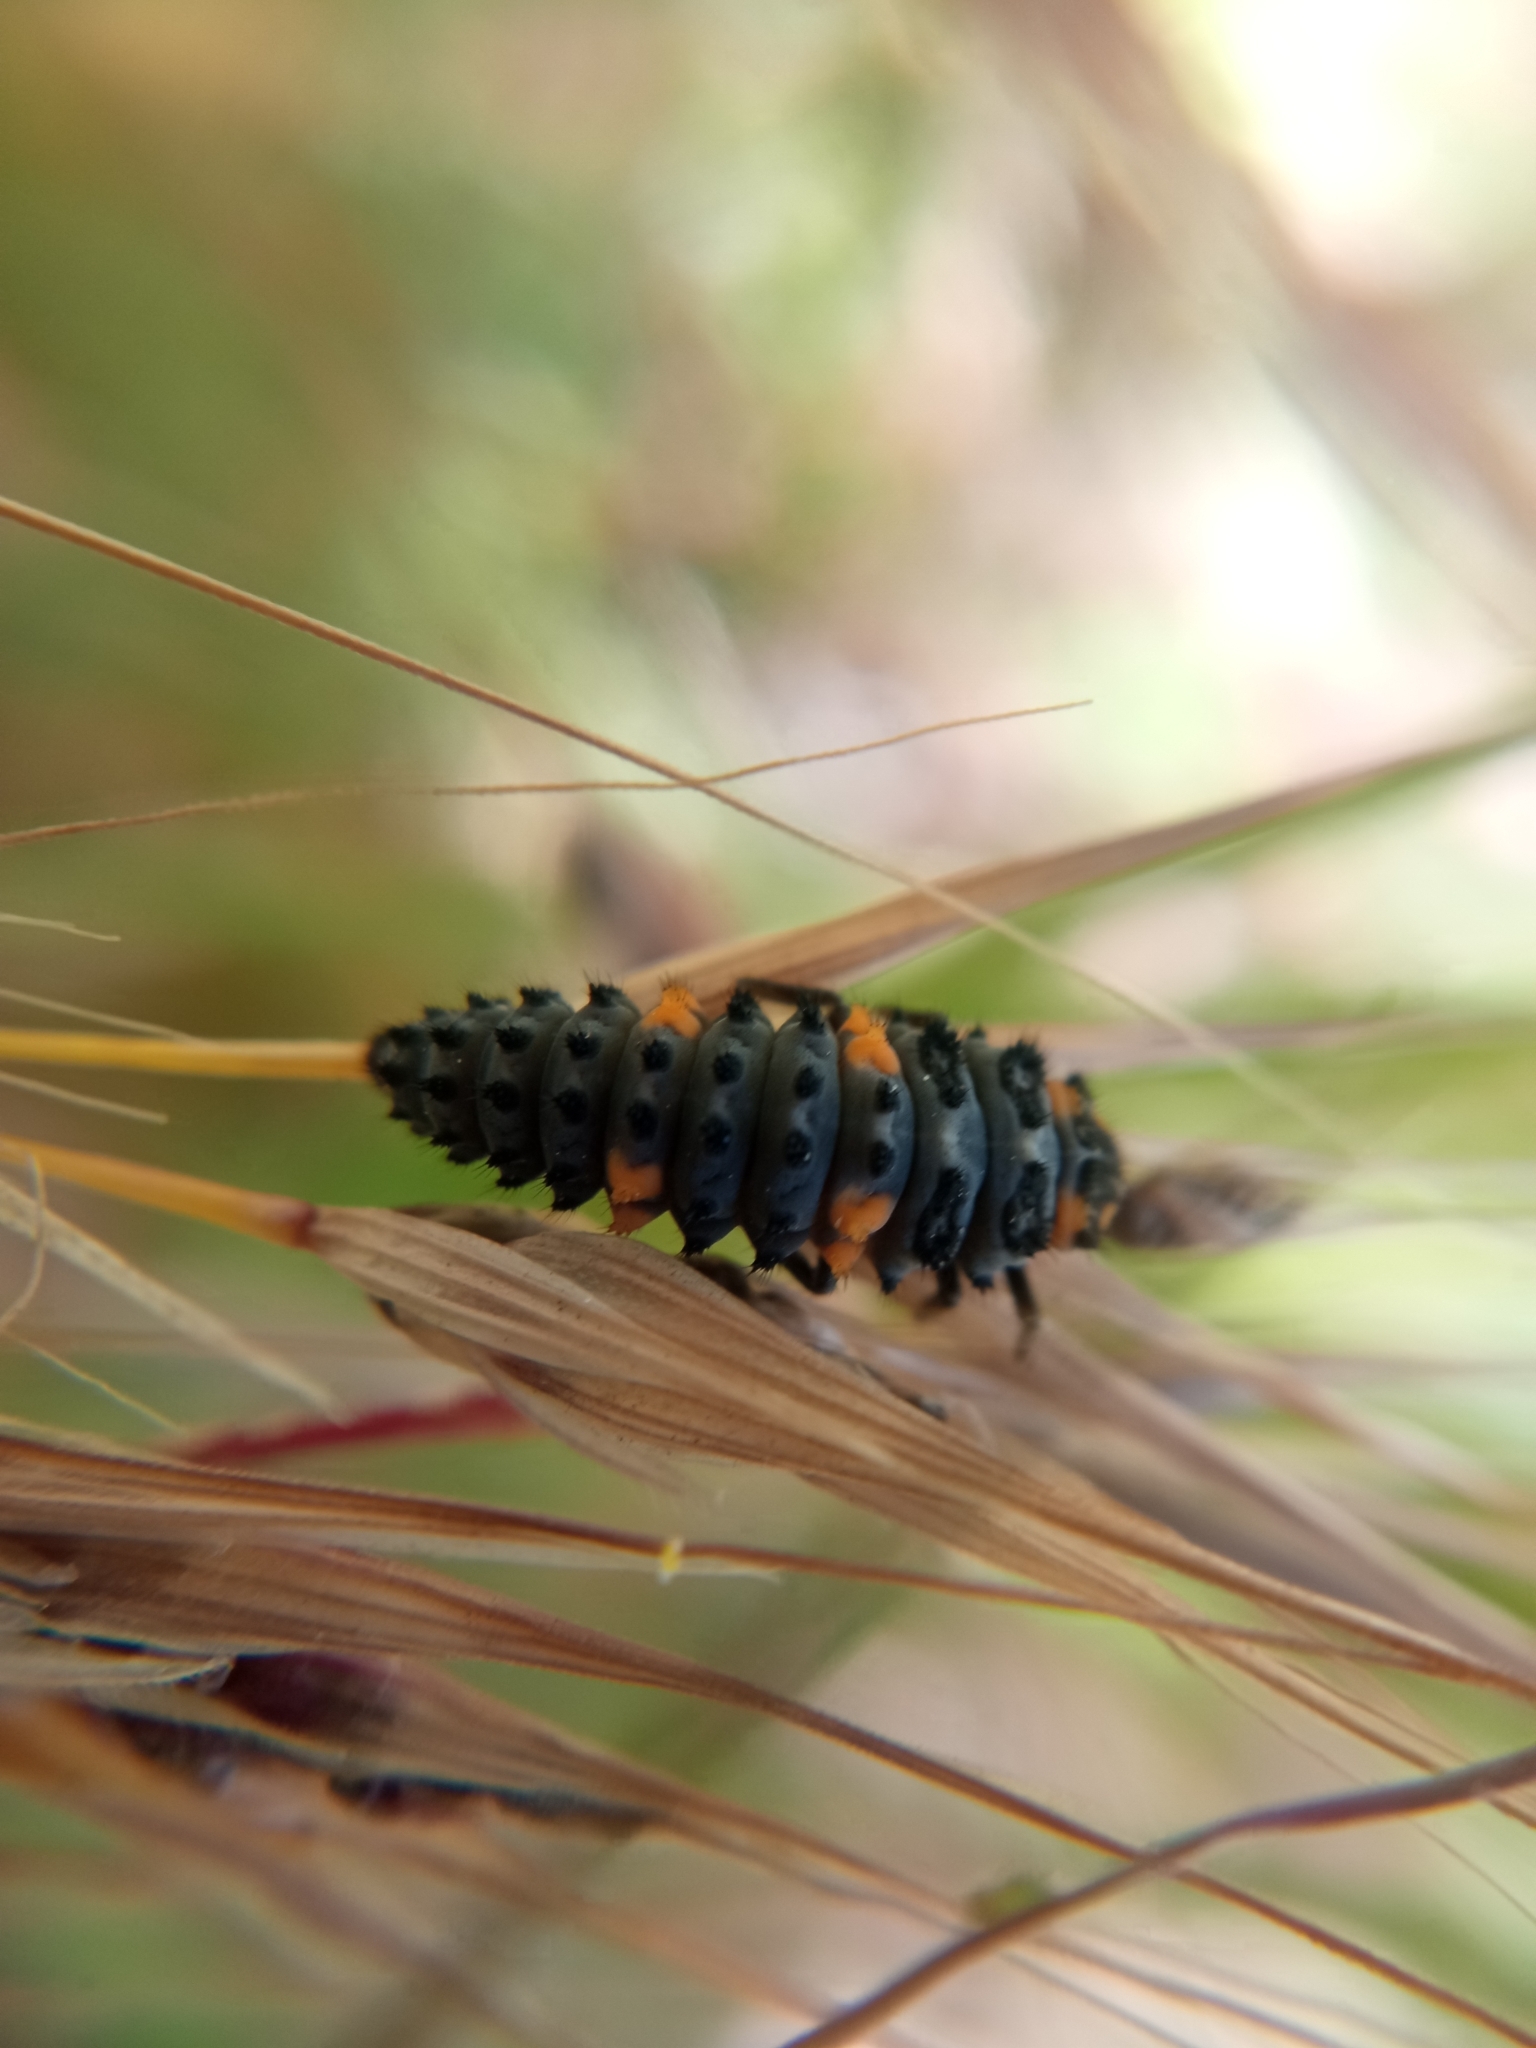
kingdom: Animalia
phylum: Arthropoda
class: Insecta
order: Coleoptera
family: Coccinellidae
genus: Coccinella
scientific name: Coccinella septempunctata
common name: Sevenspotted lady beetle
